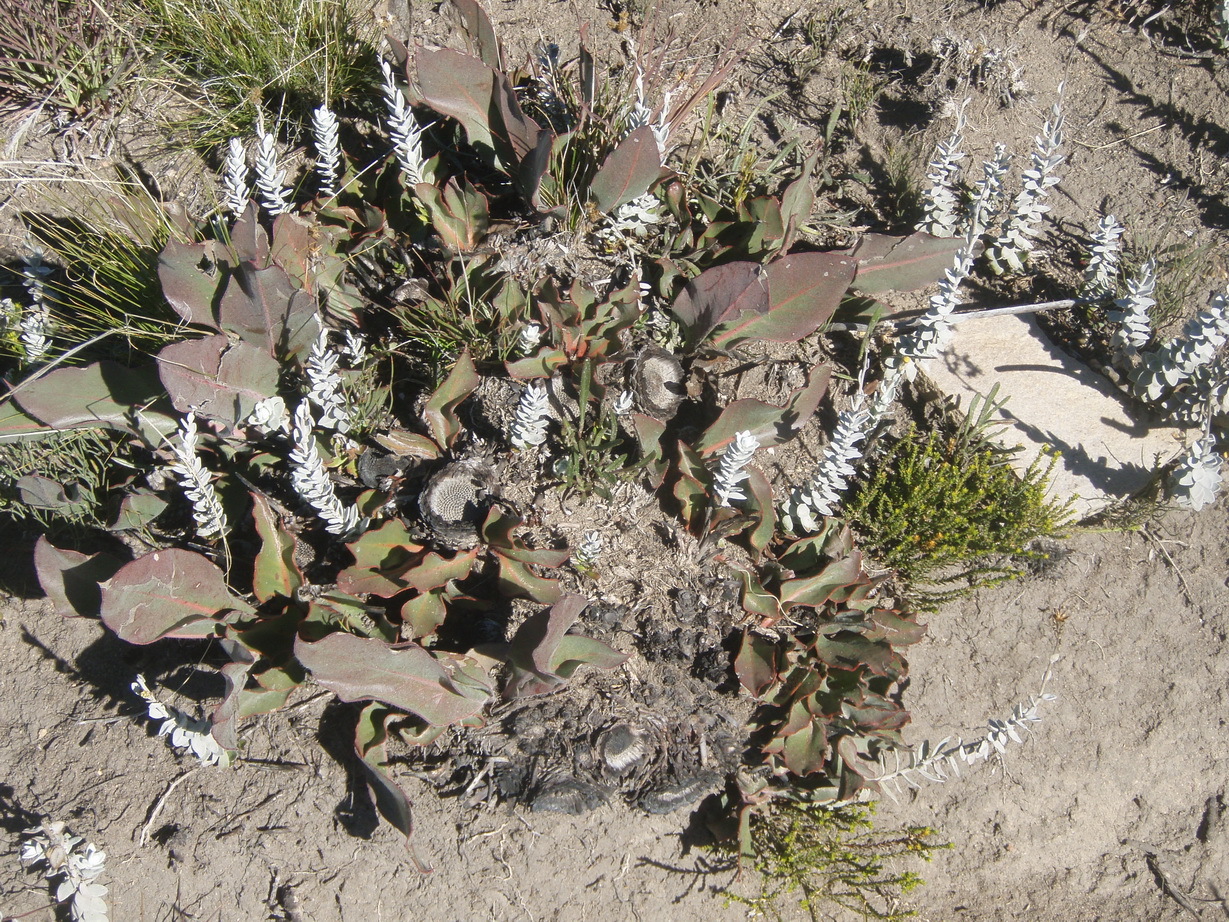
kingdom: Plantae
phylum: Tracheophyta
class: Magnoliopsida
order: Proteales
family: Proteaceae
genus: Protea
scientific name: Protea scolopendriifolia
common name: Harts-tongue-fern sugarbush
